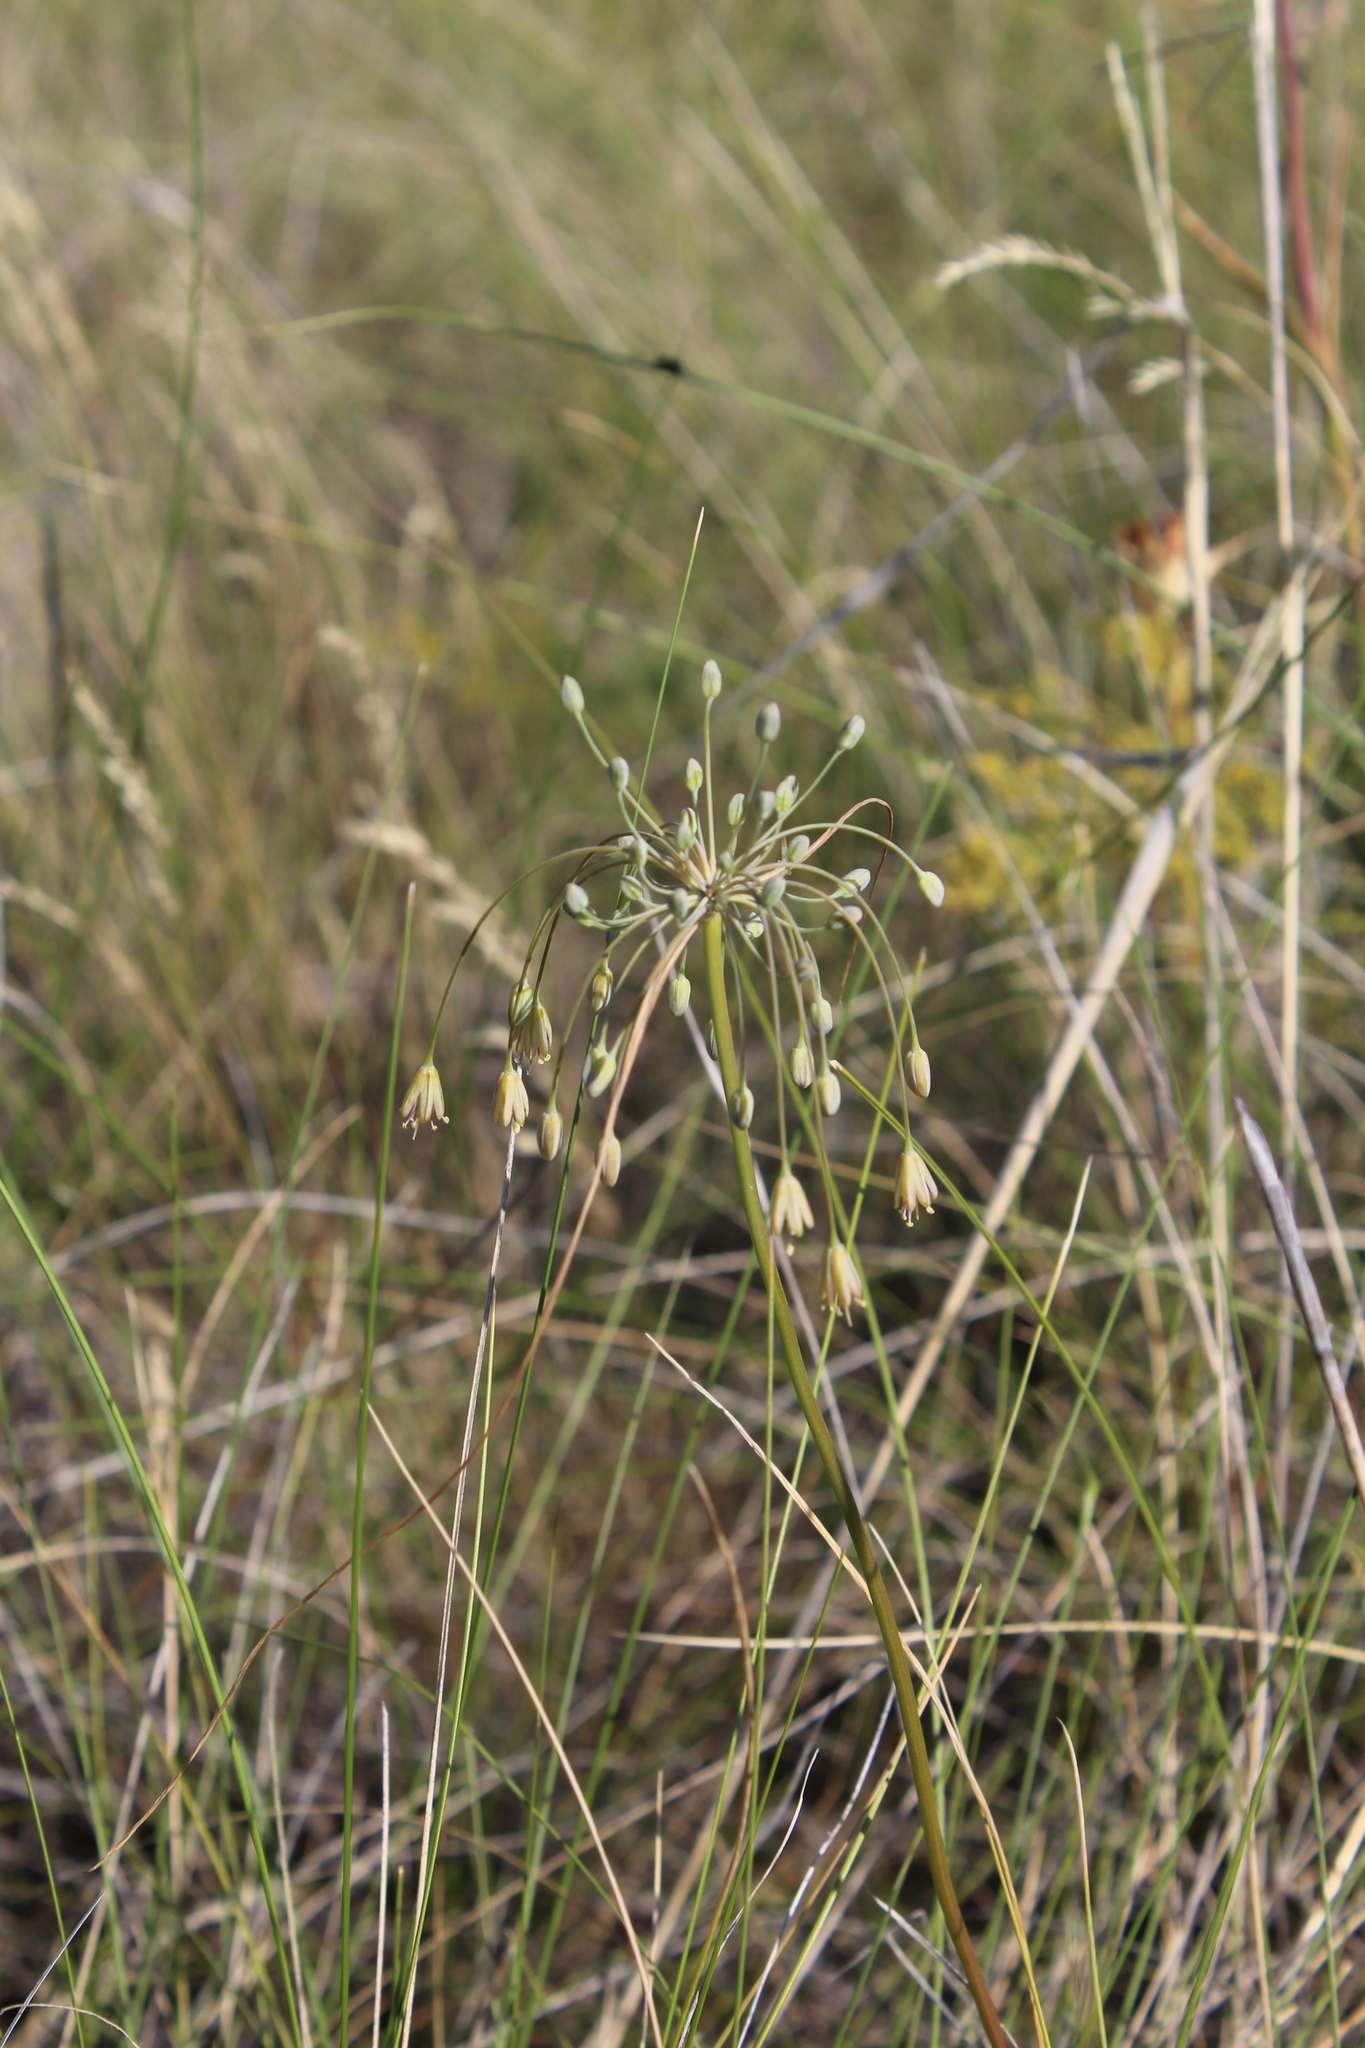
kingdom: Plantae
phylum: Tracheophyta
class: Liliopsida
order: Asparagales
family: Amaryllidaceae
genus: Allium
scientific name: Allium flavum
